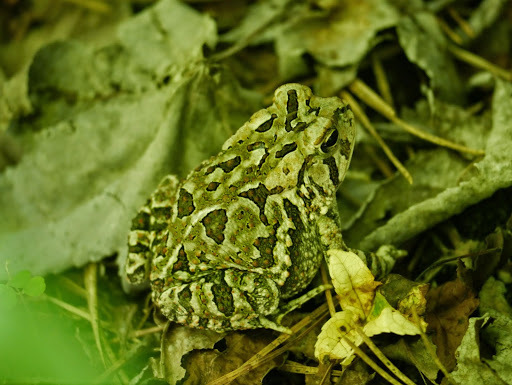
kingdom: Animalia
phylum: Chordata
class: Amphibia
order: Anura
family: Bufonidae
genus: Anaxyrus
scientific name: Anaxyrus fowleri
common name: Fowler's toad
